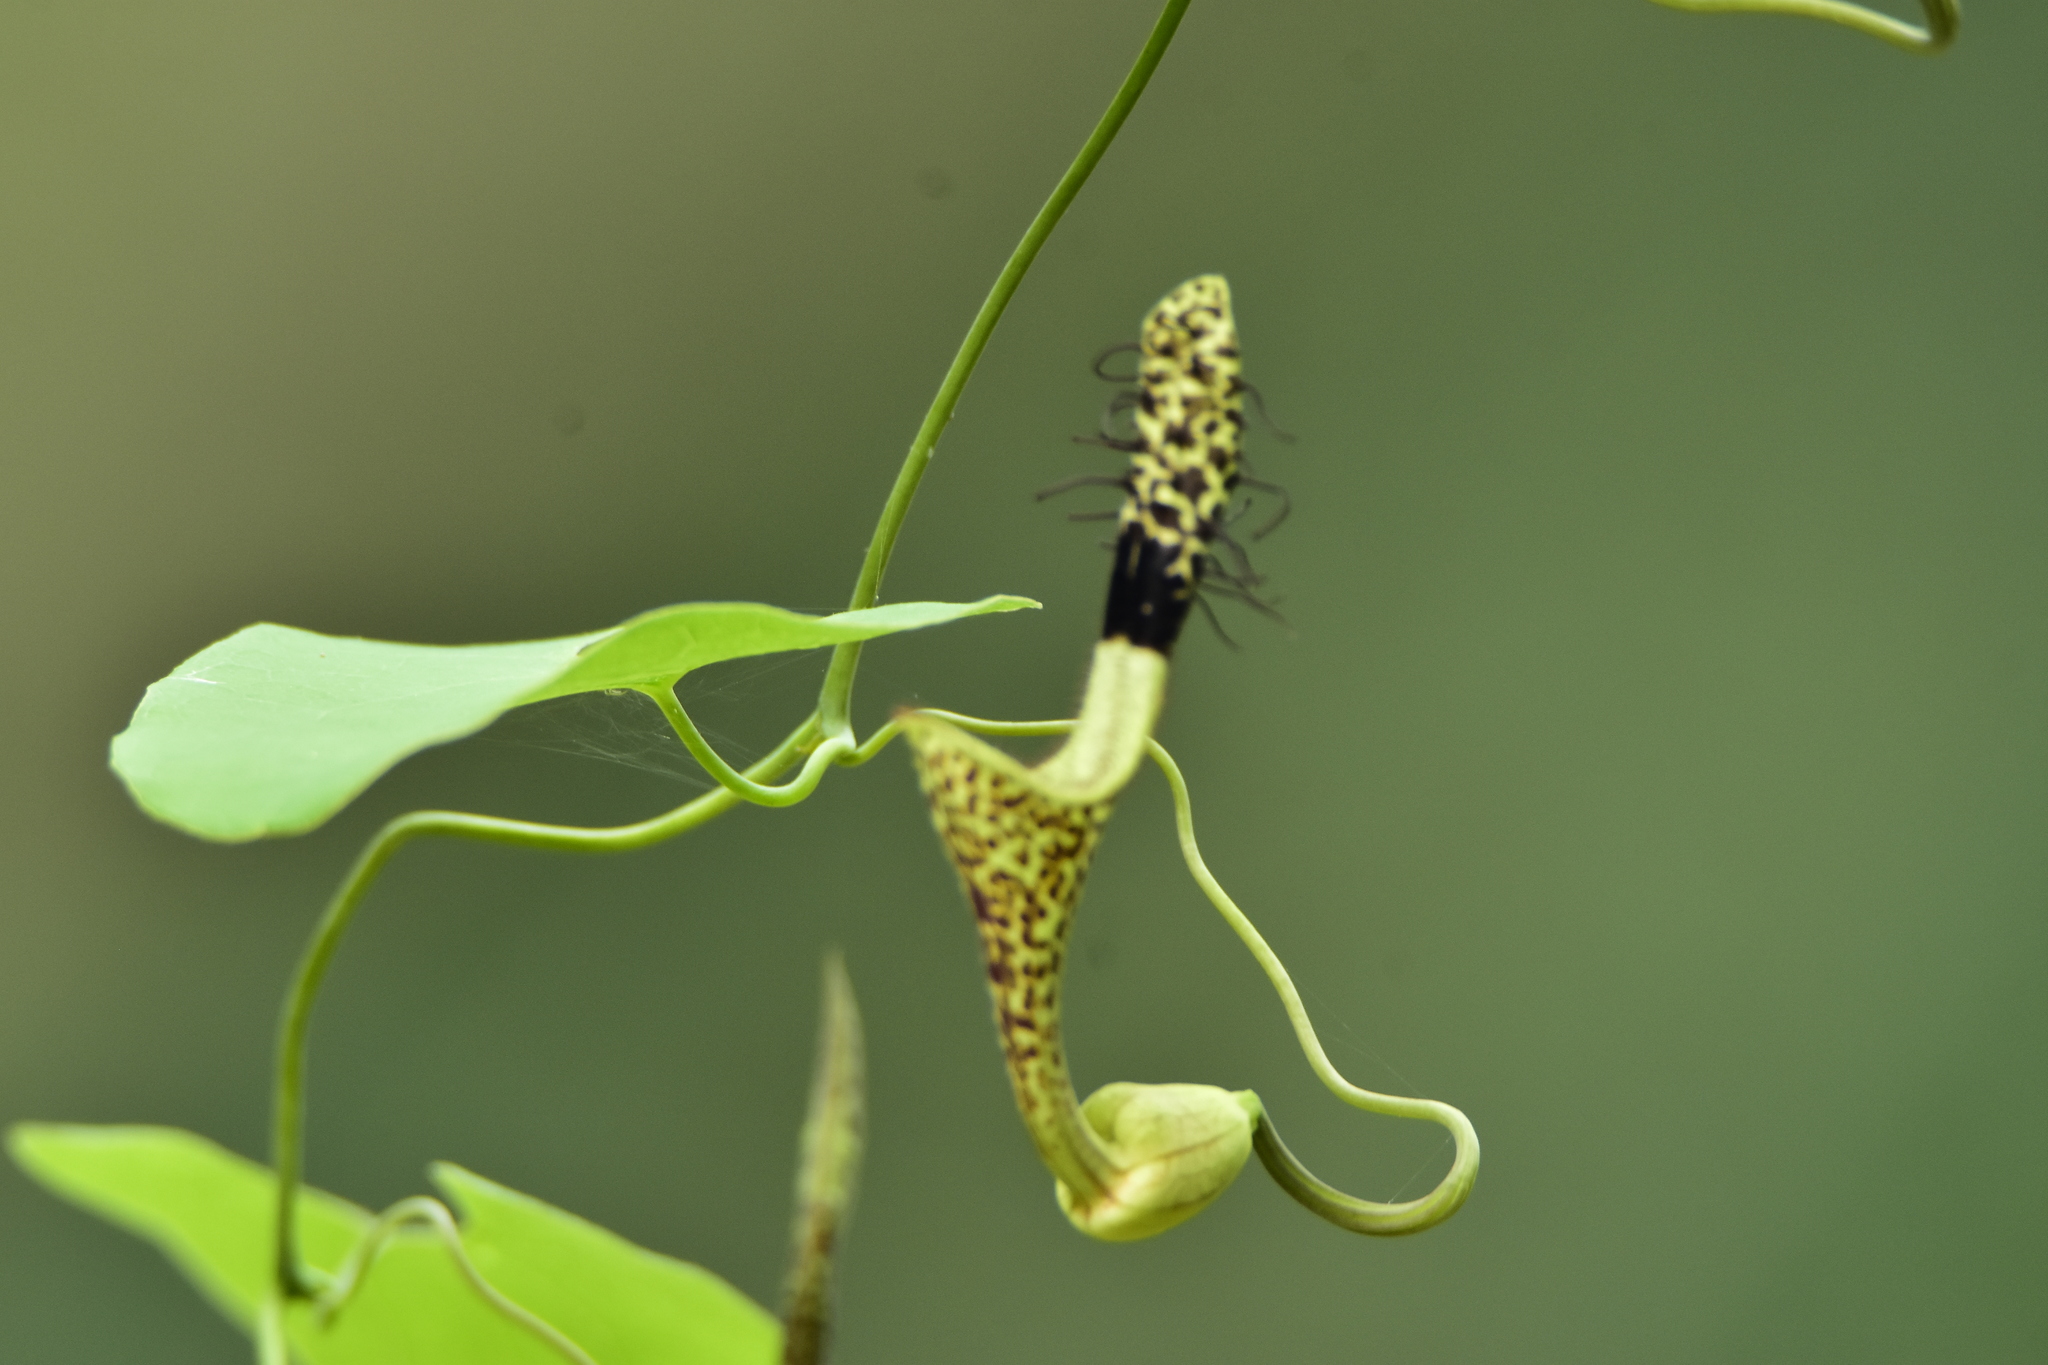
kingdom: Plantae
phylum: Tracheophyta
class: Magnoliopsida
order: Piperales
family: Aristolochiaceae
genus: Aristolochia
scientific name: Aristolochia taliscana
